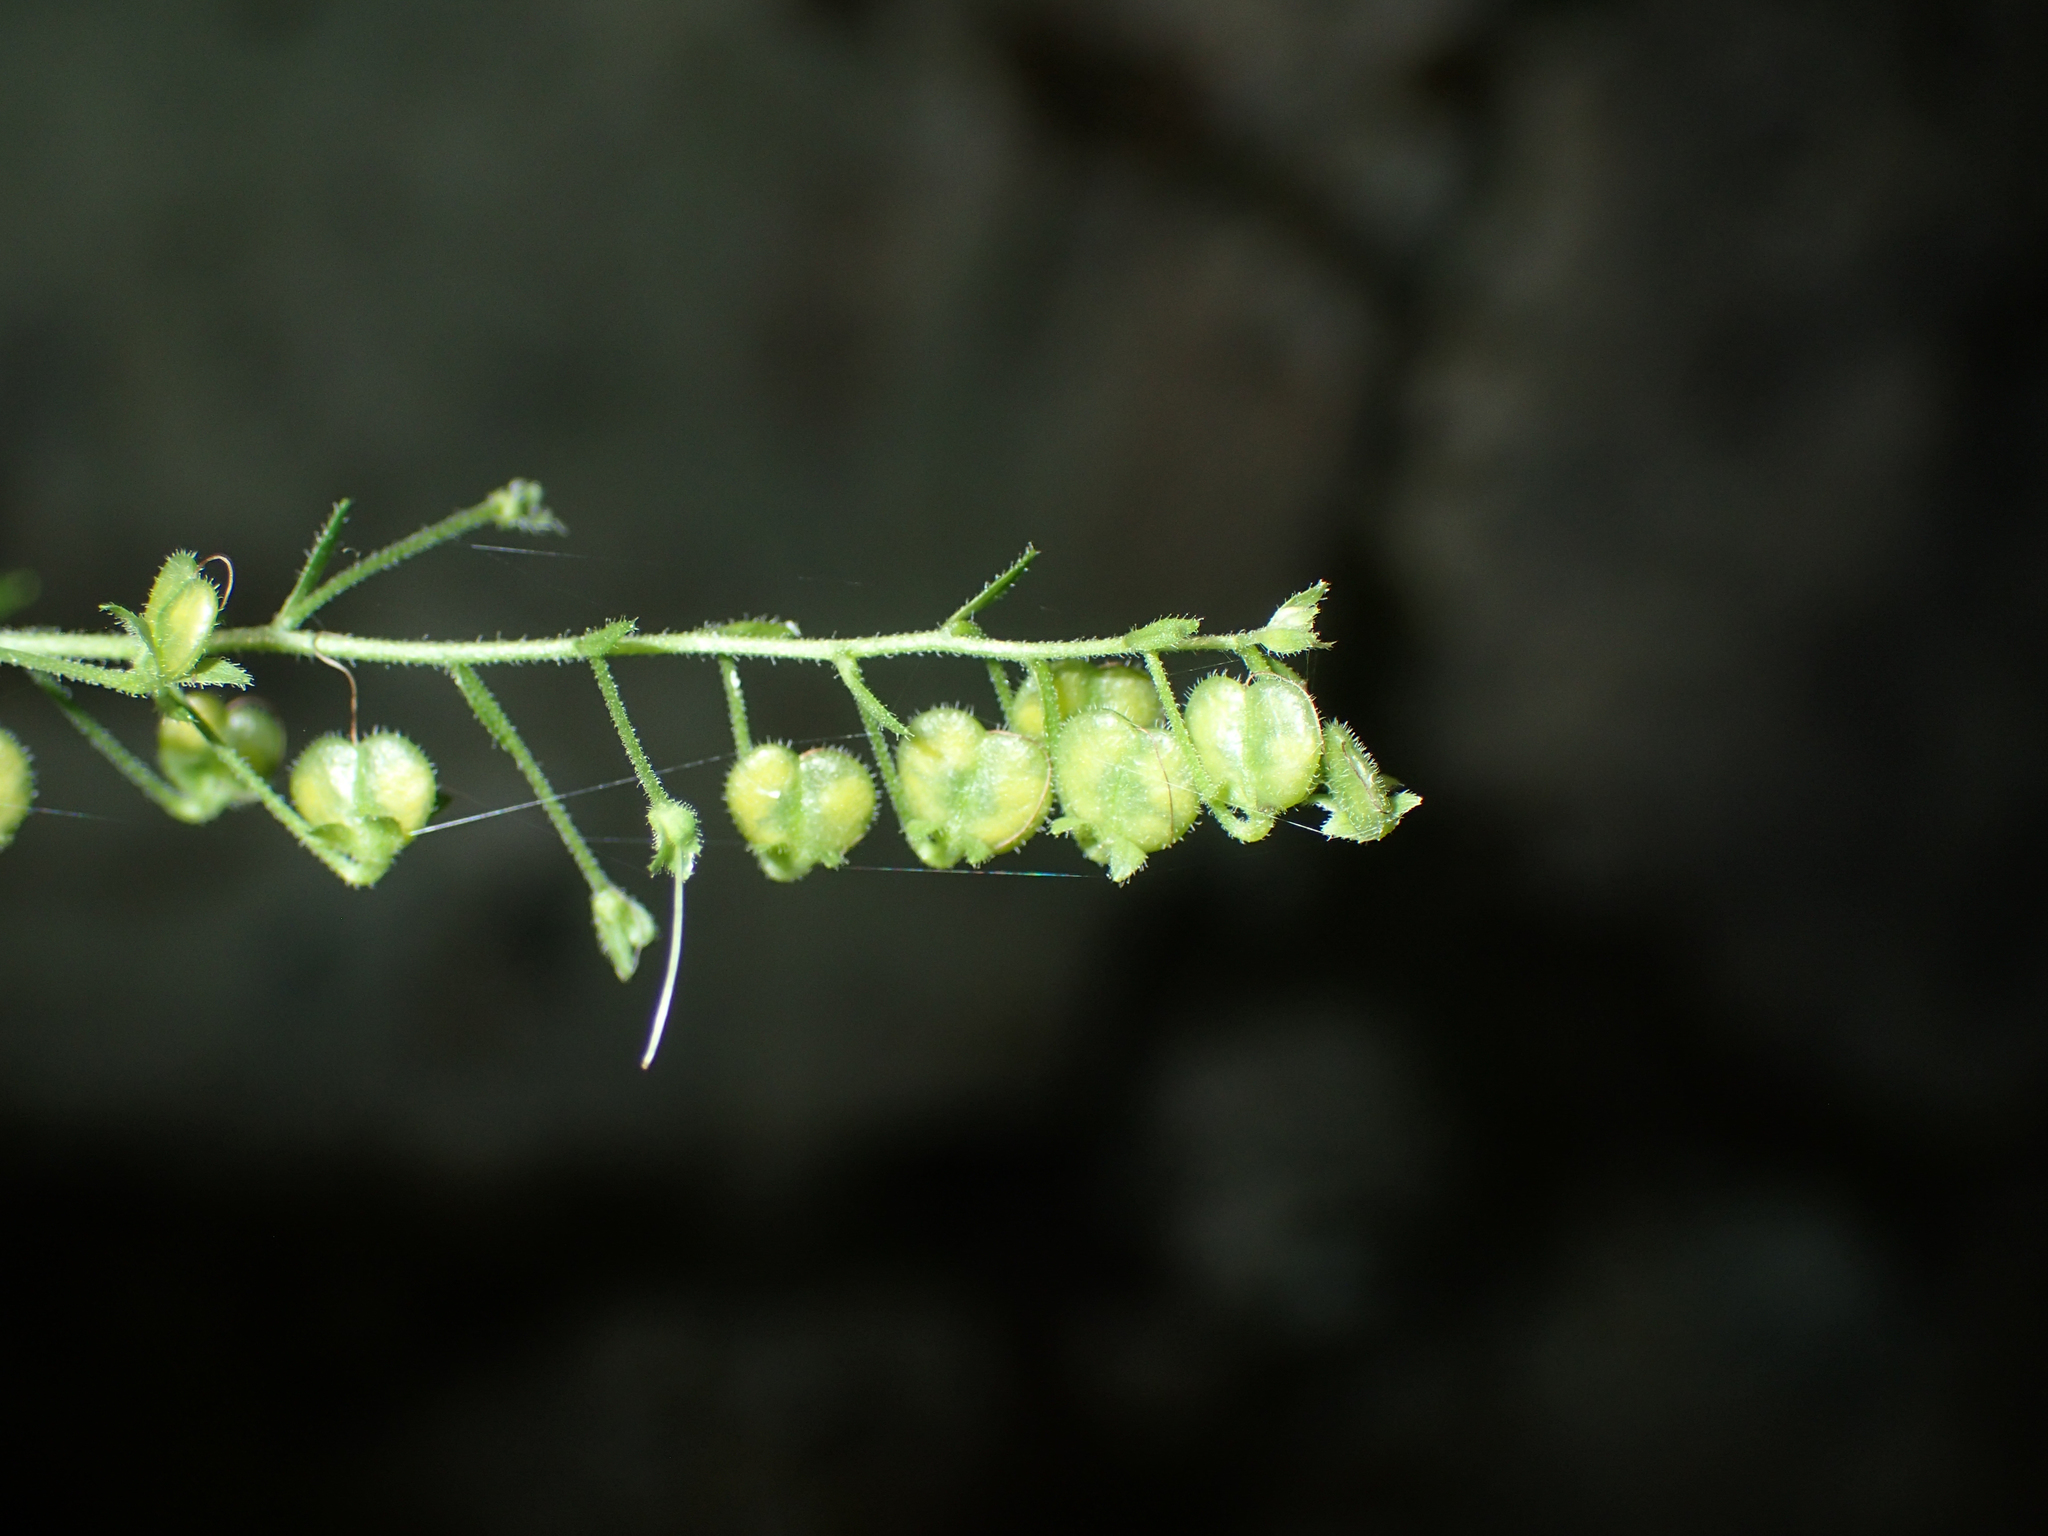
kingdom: Plantae
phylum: Tracheophyta
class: Magnoliopsida
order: Lamiales
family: Plantaginaceae
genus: Veronica
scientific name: Veronica urticifolia
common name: Nettle-leaf speedwell
